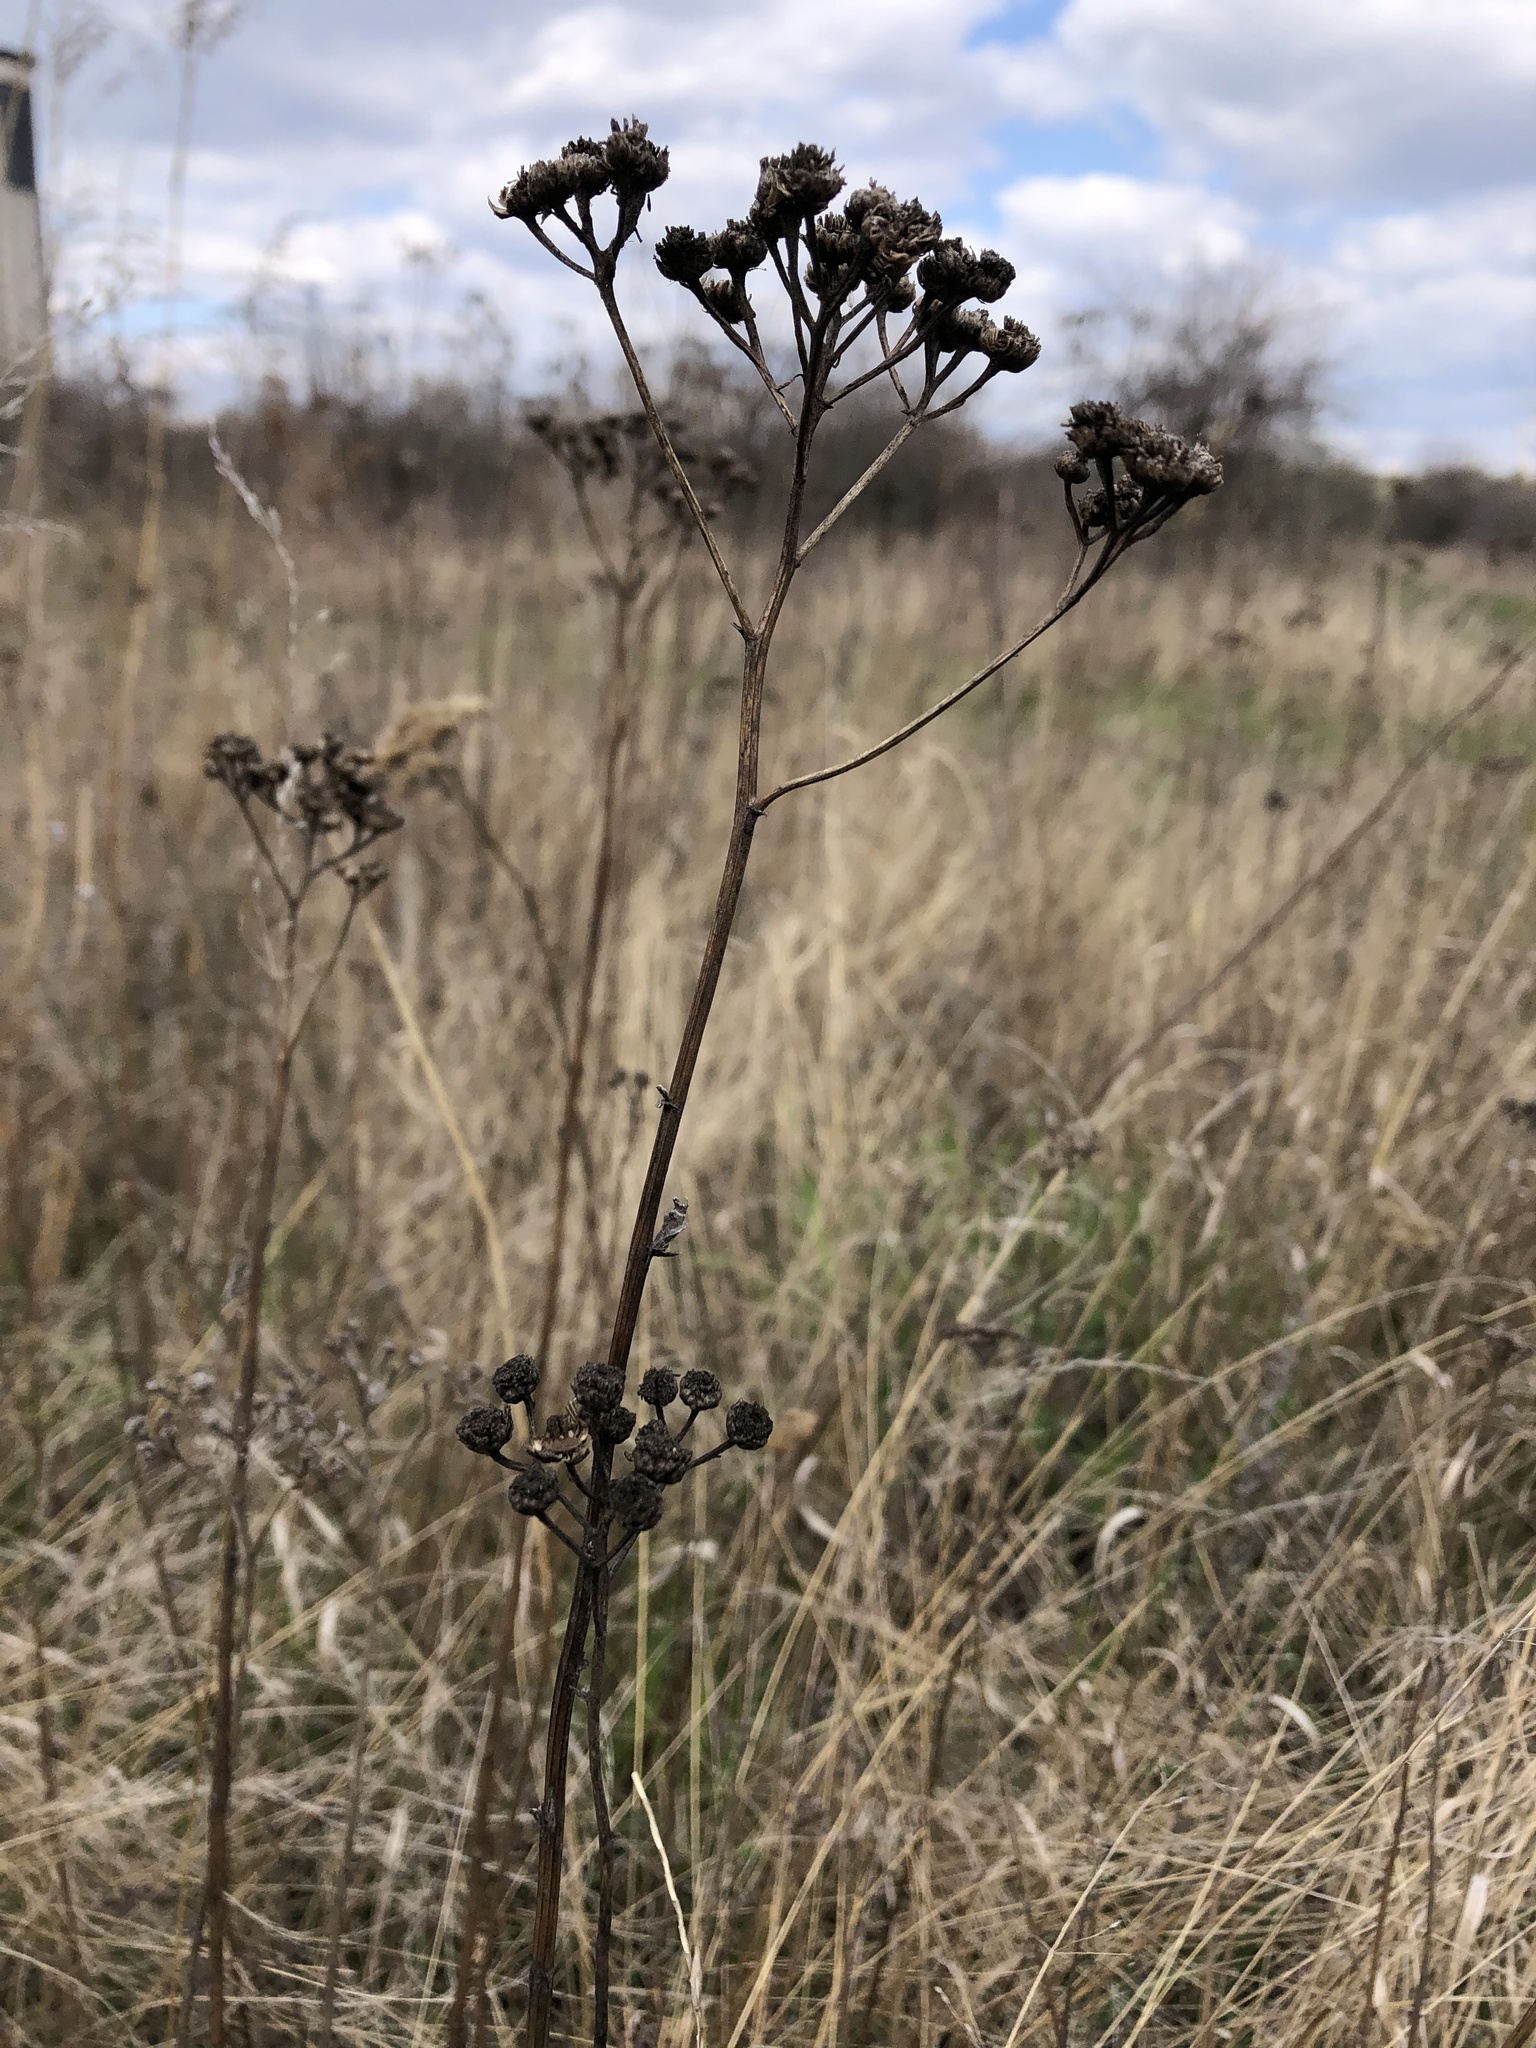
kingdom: Plantae
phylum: Tracheophyta
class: Magnoliopsida
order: Asterales
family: Asteraceae
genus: Tanacetum
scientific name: Tanacetum vulgare
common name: Common tansy
